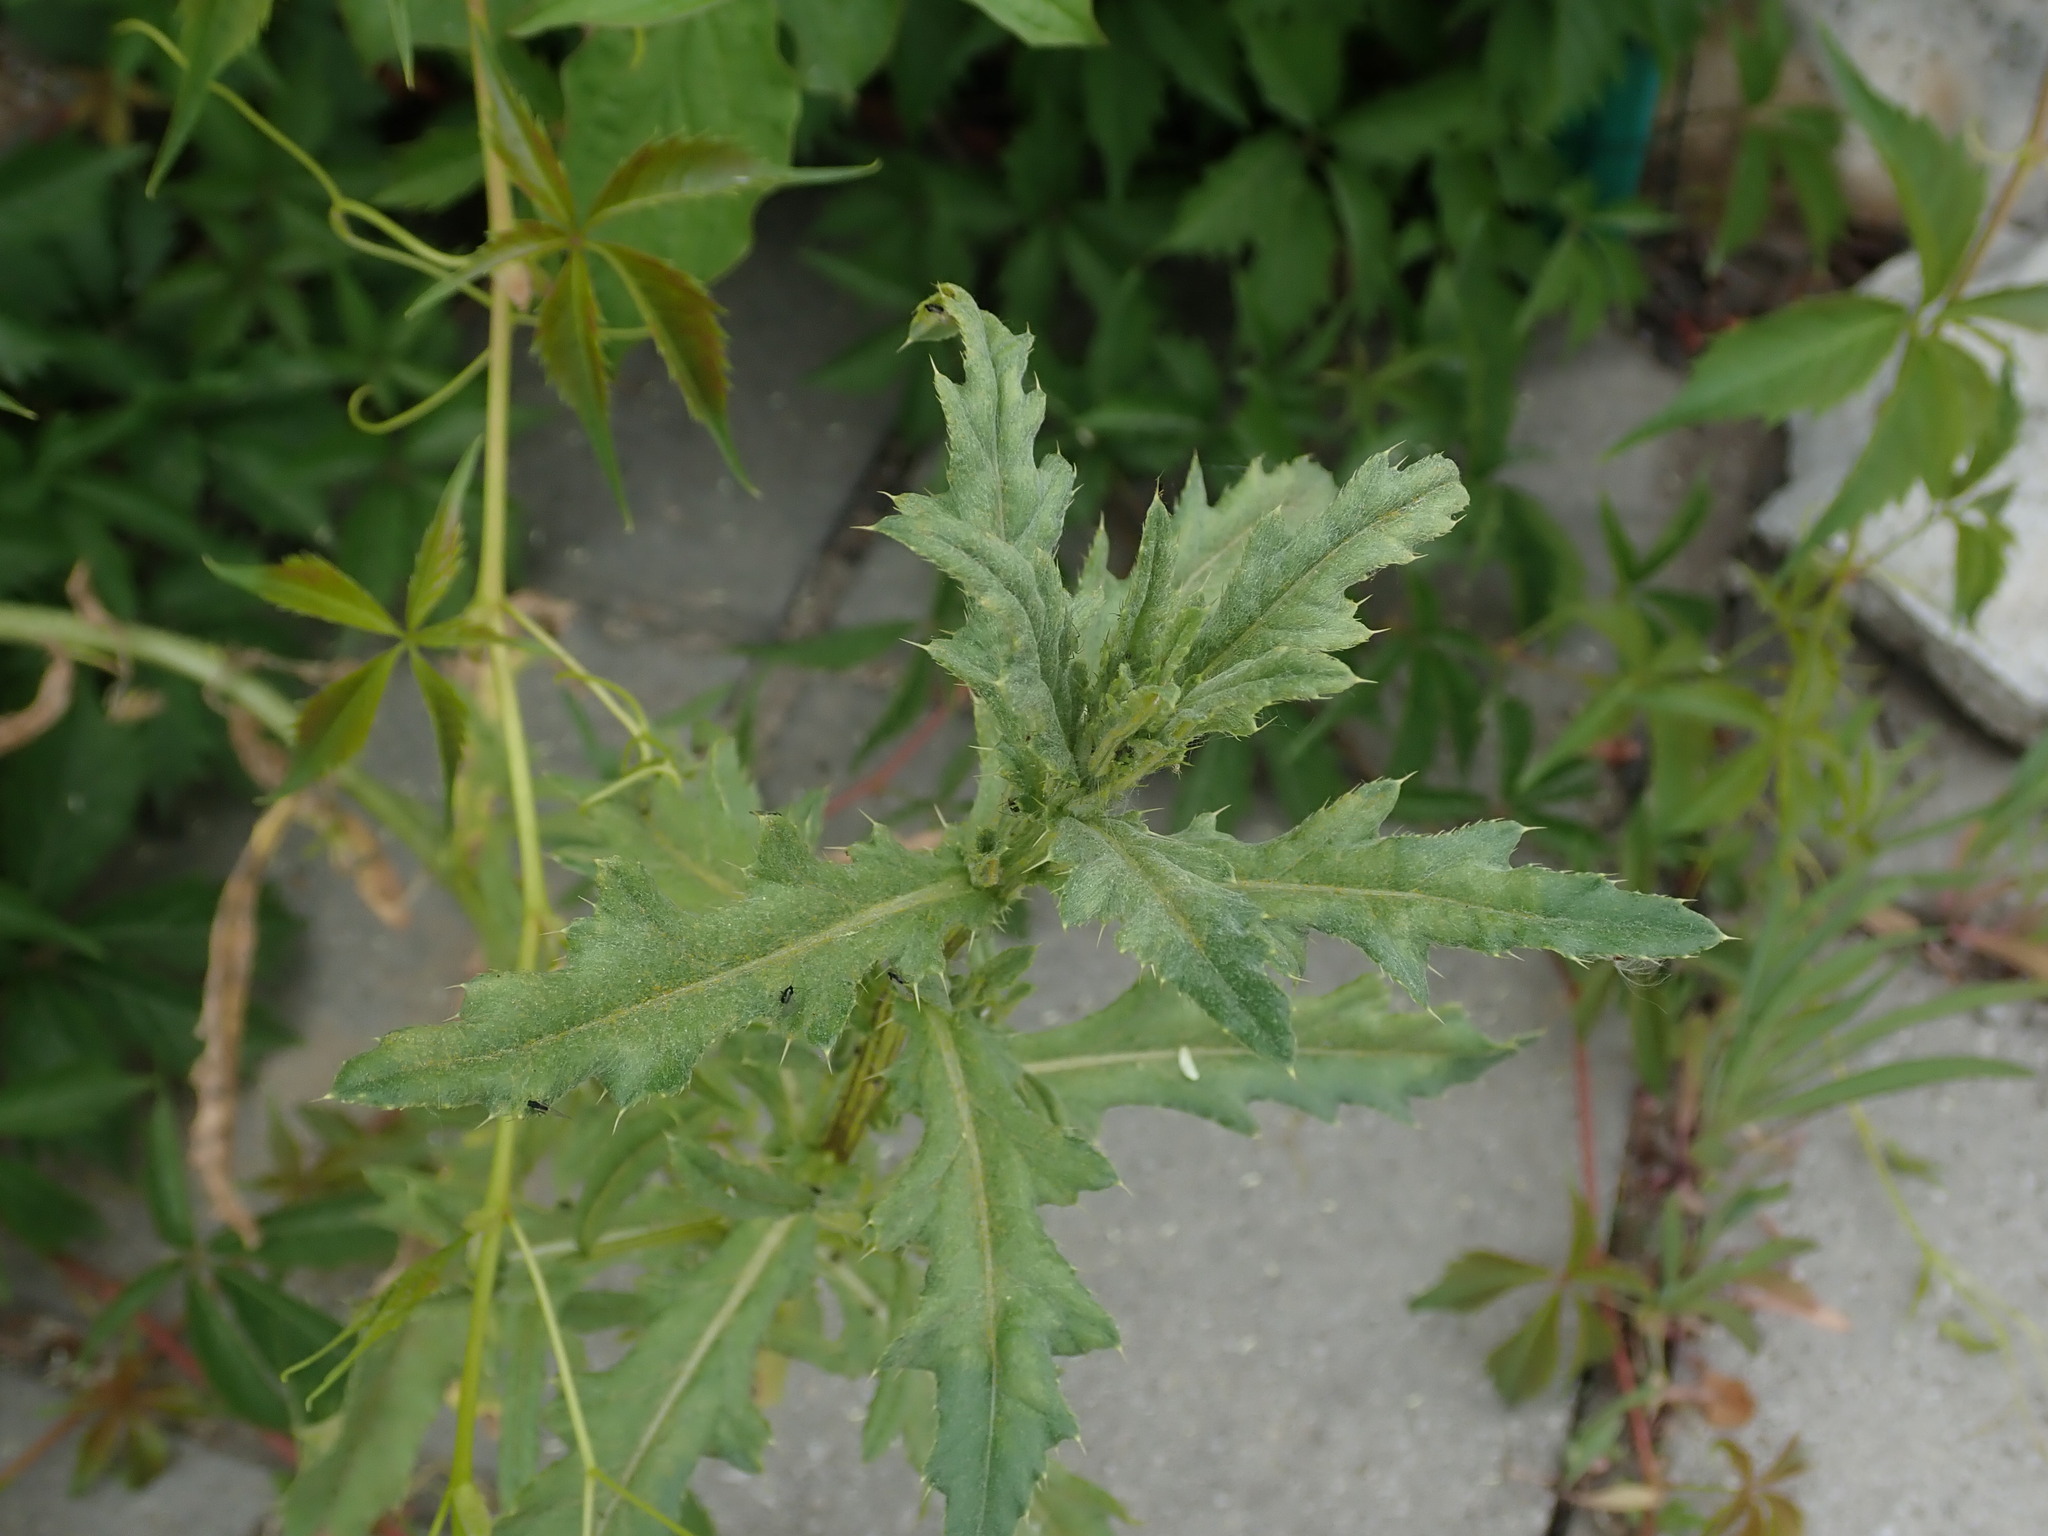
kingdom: Plantae
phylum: Tracheophyta
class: Magnoliopsida
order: Asterales
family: Asteraceae
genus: Cirsium
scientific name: Cirsium arvense
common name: Creeping thistle
